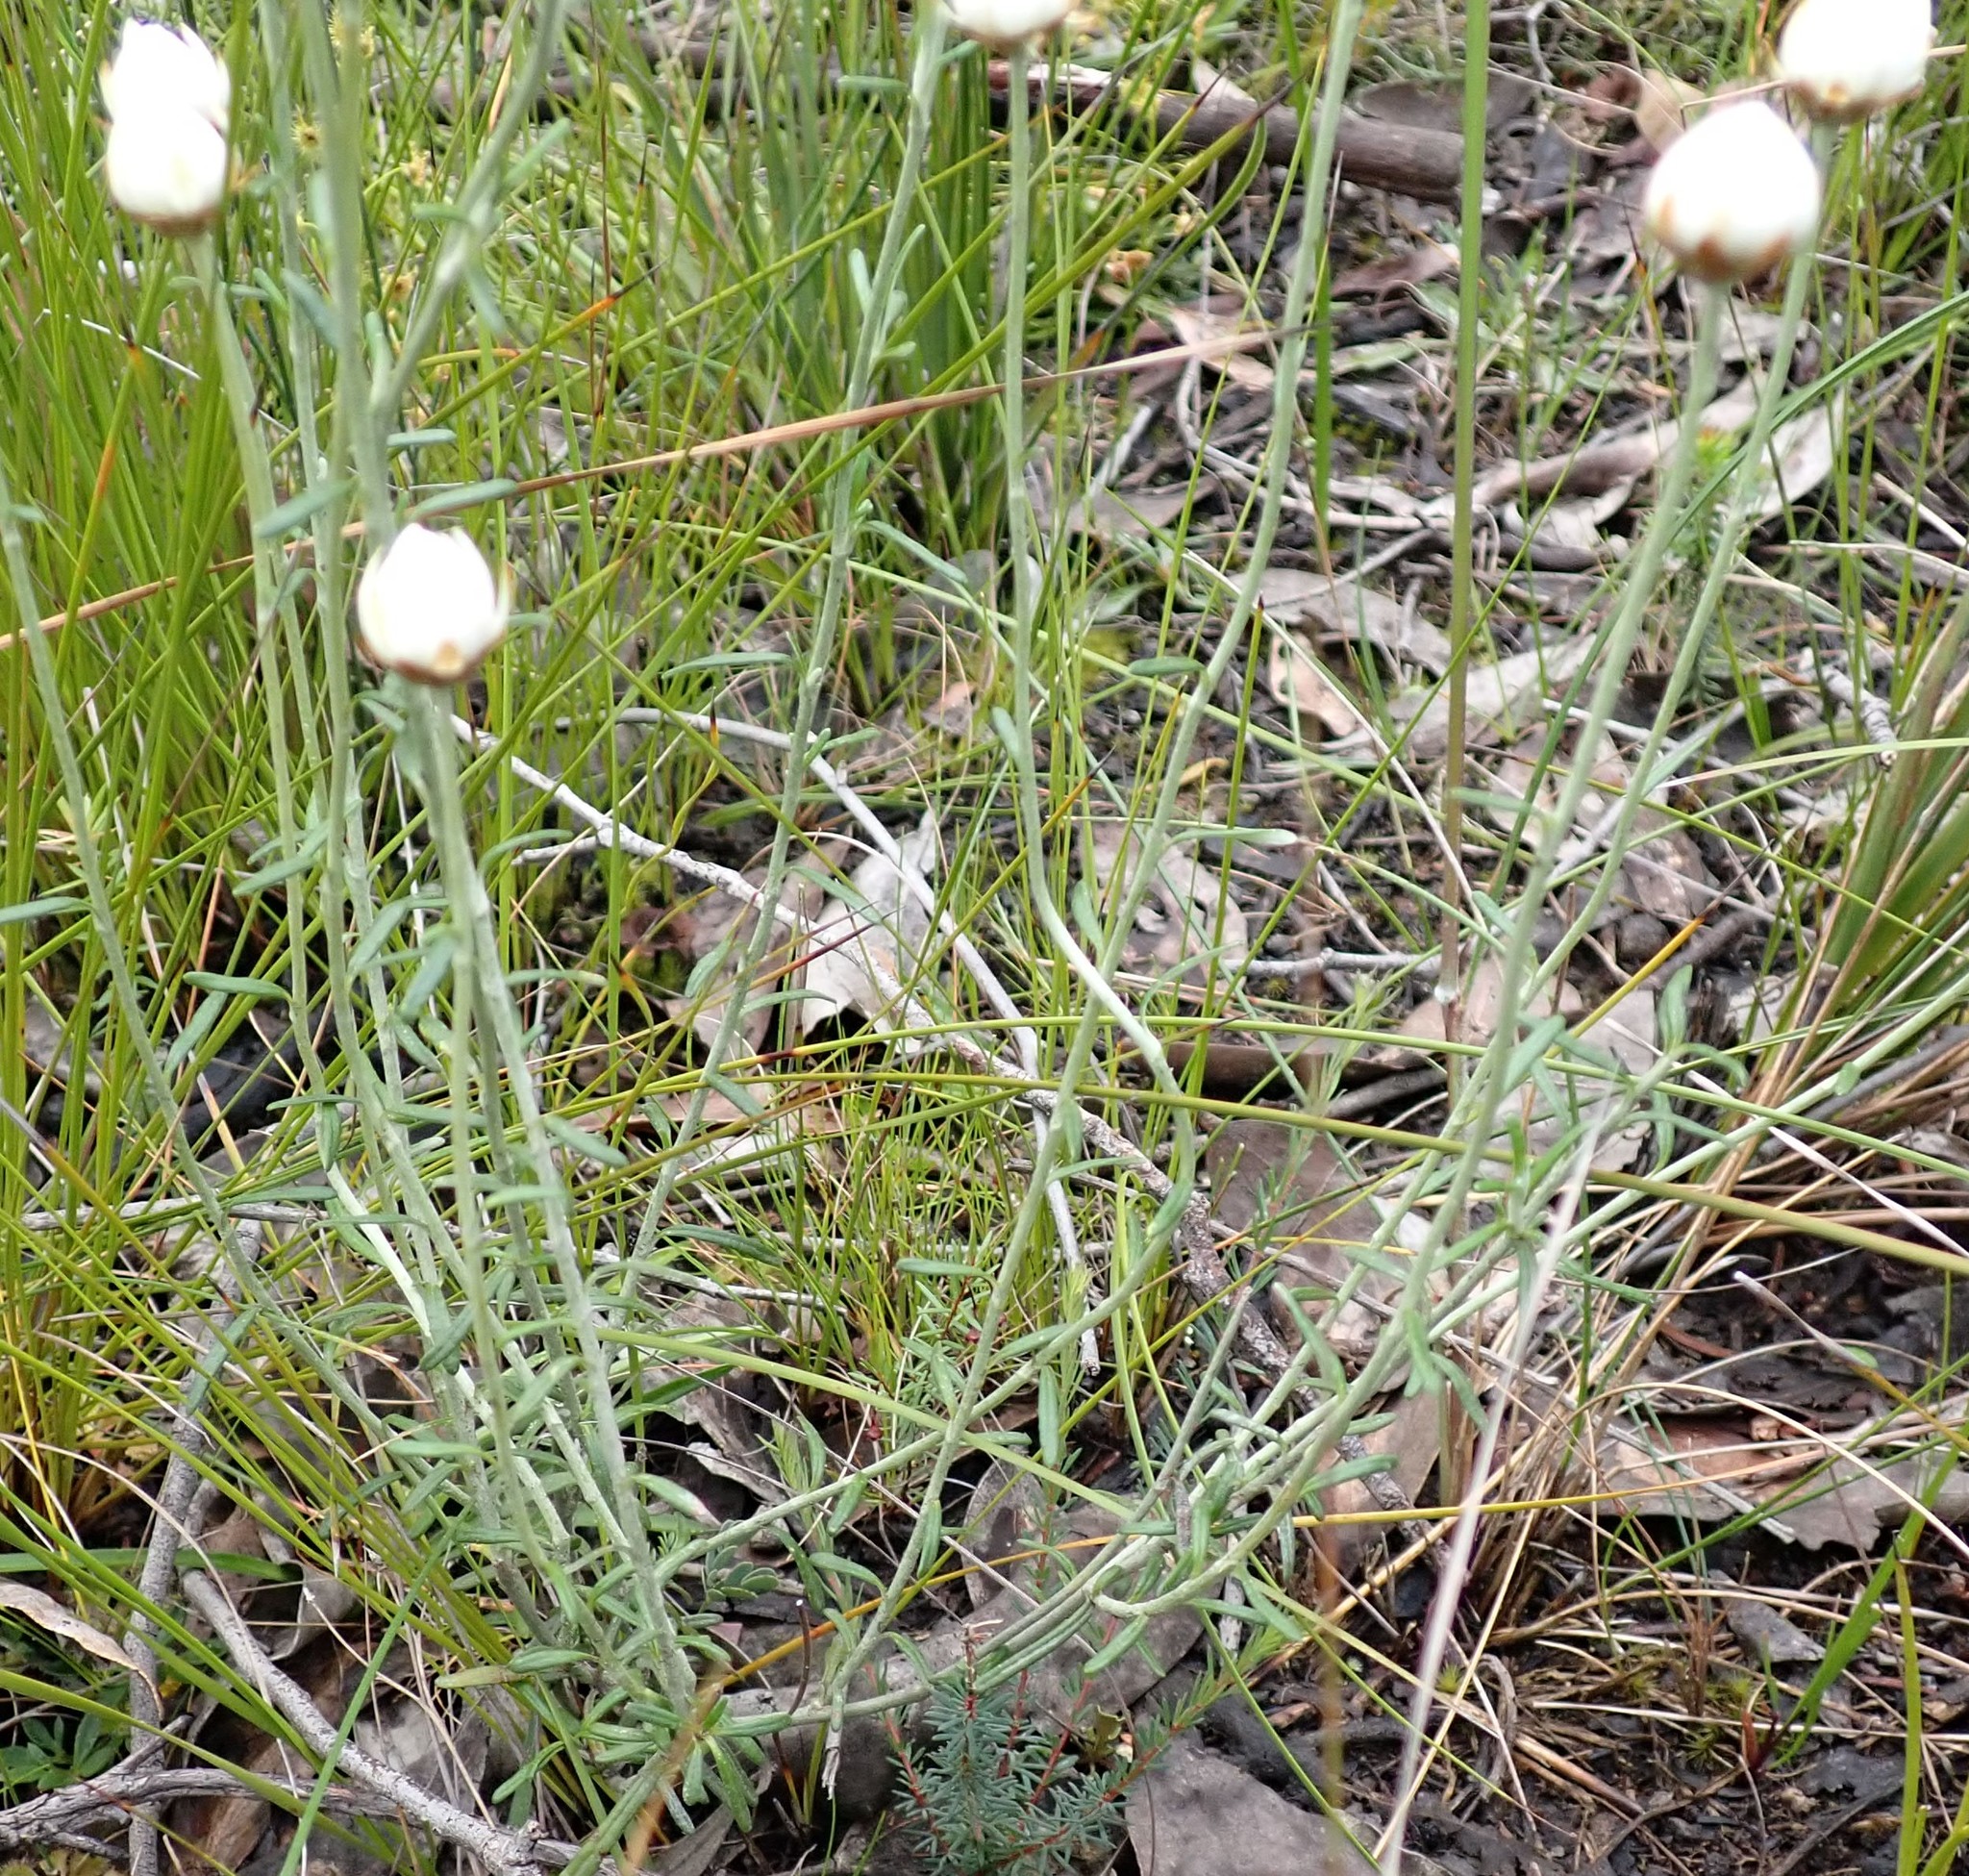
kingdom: Plantae
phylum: Tracheophyta
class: Magnoliopsida
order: Asterales
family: Asteraceae
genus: Argentipallium
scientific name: Argentipallium obtusifolium
